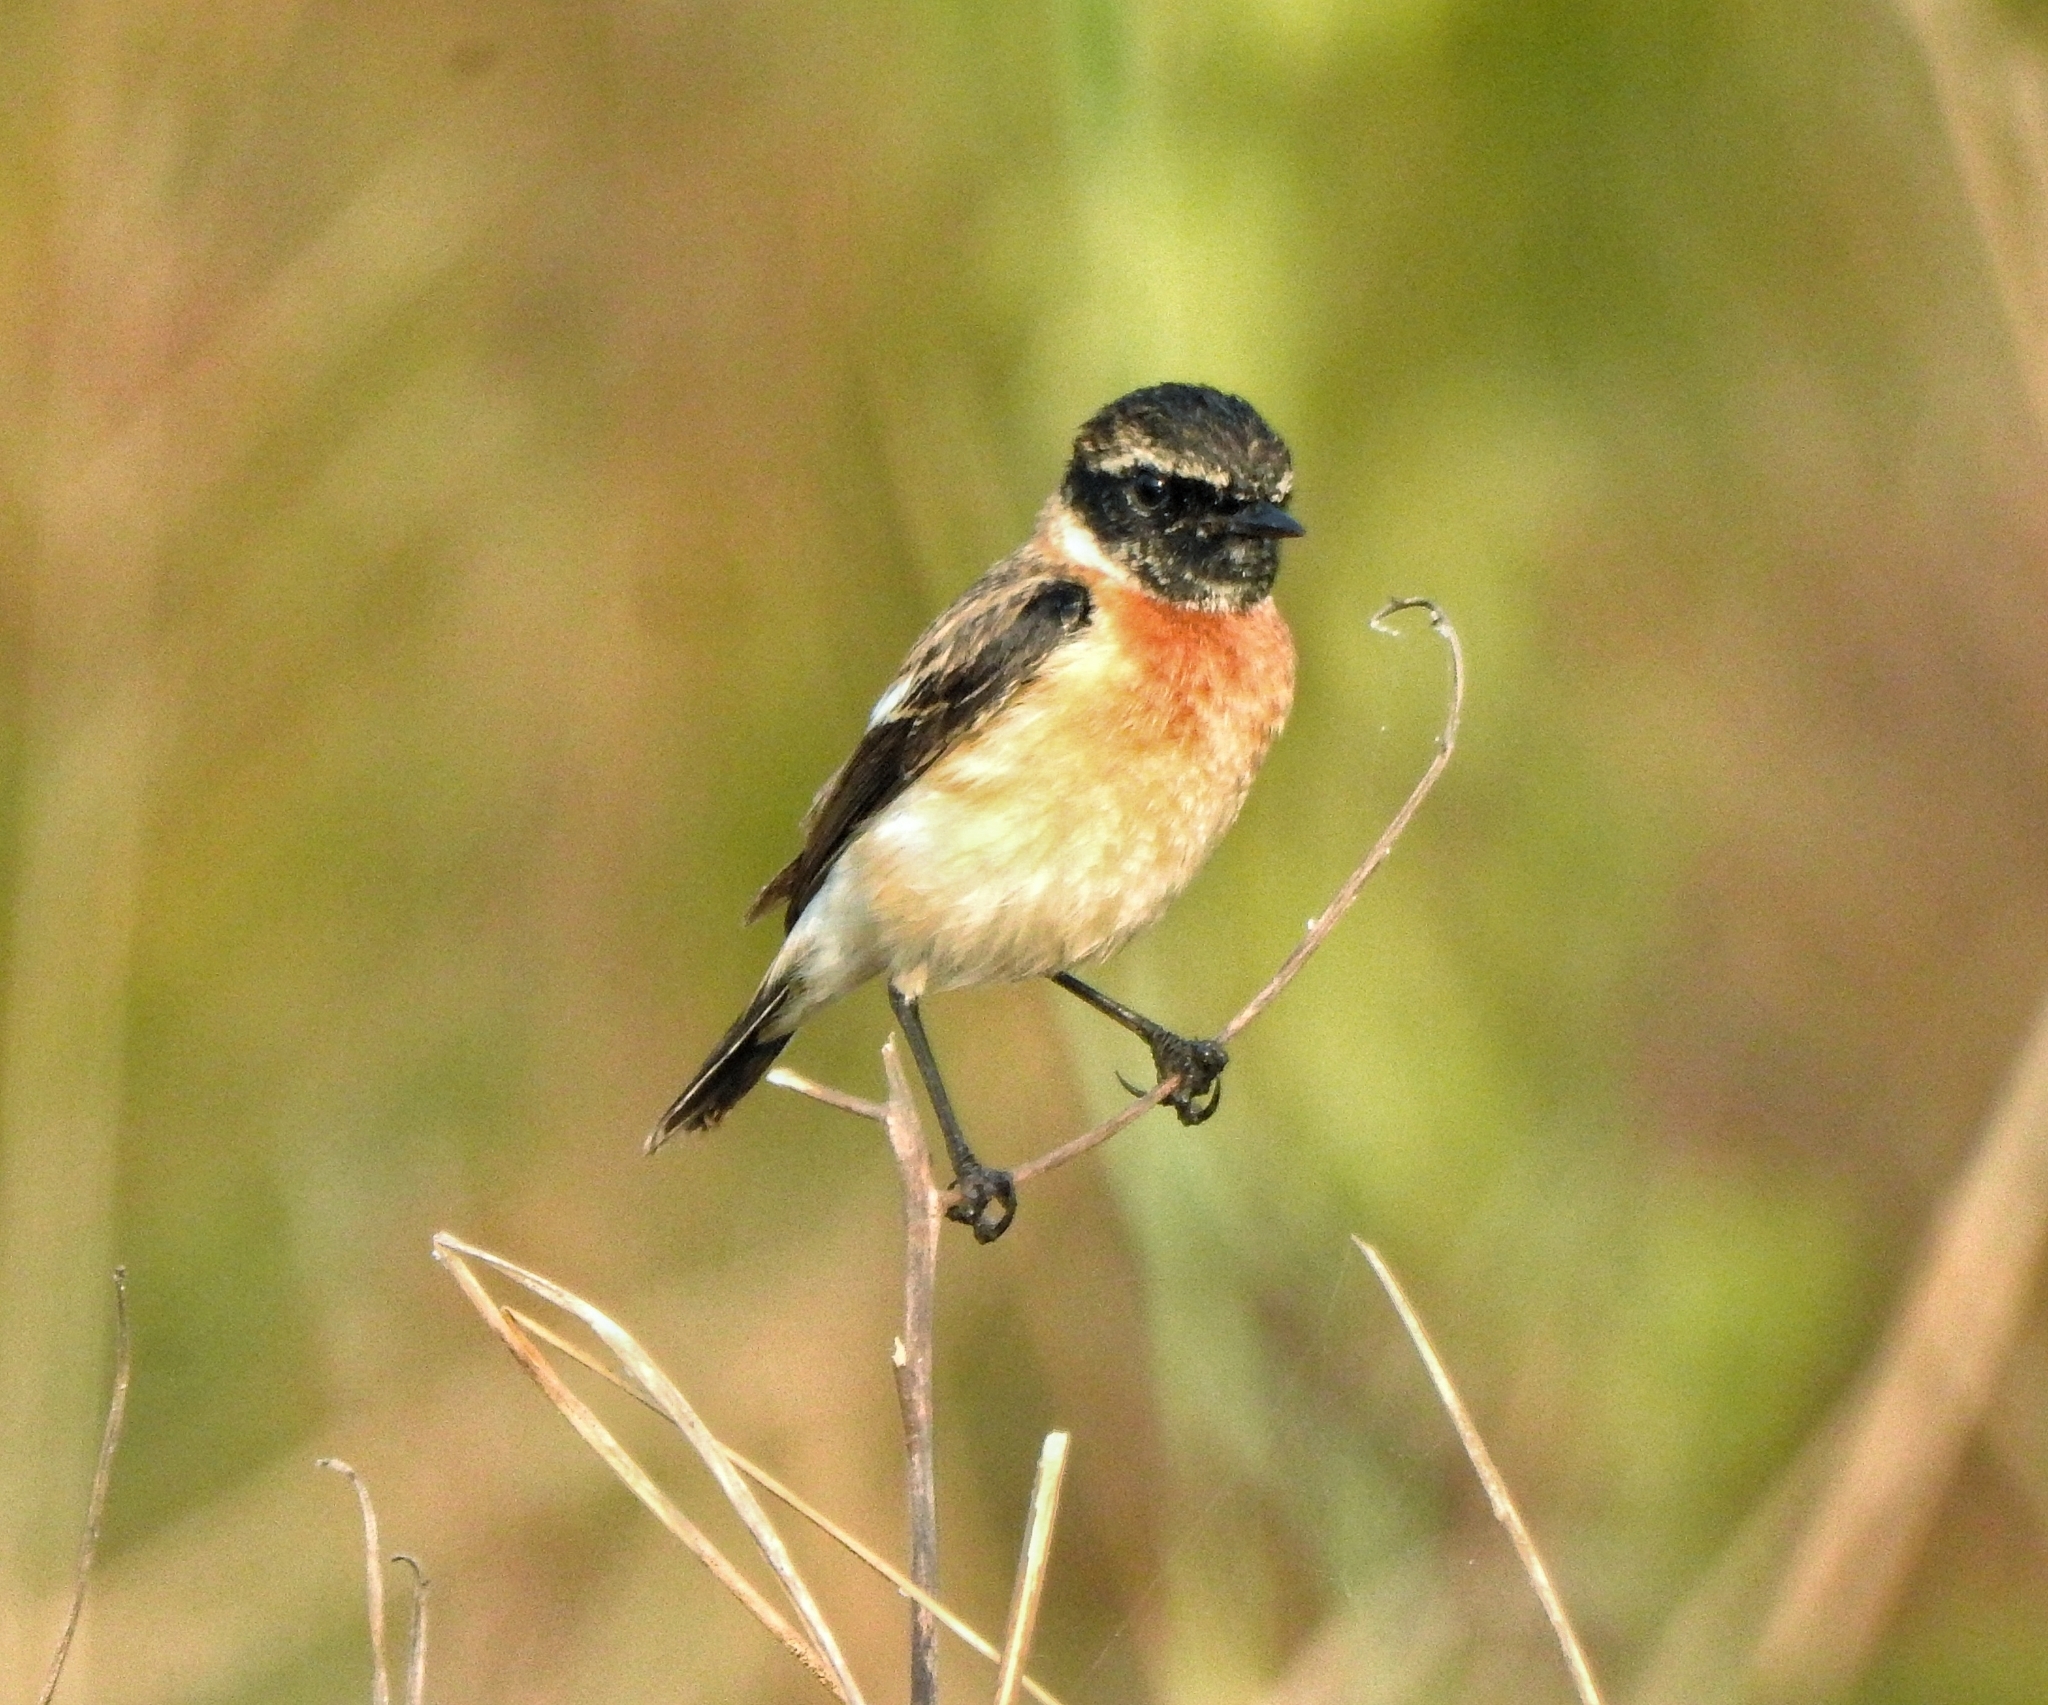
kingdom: Animalia
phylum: Chordata
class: Aves
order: Passeriformes
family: Muscicapidae
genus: Saxicola
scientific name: Saxicola maurus
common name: Siberian stonechat
